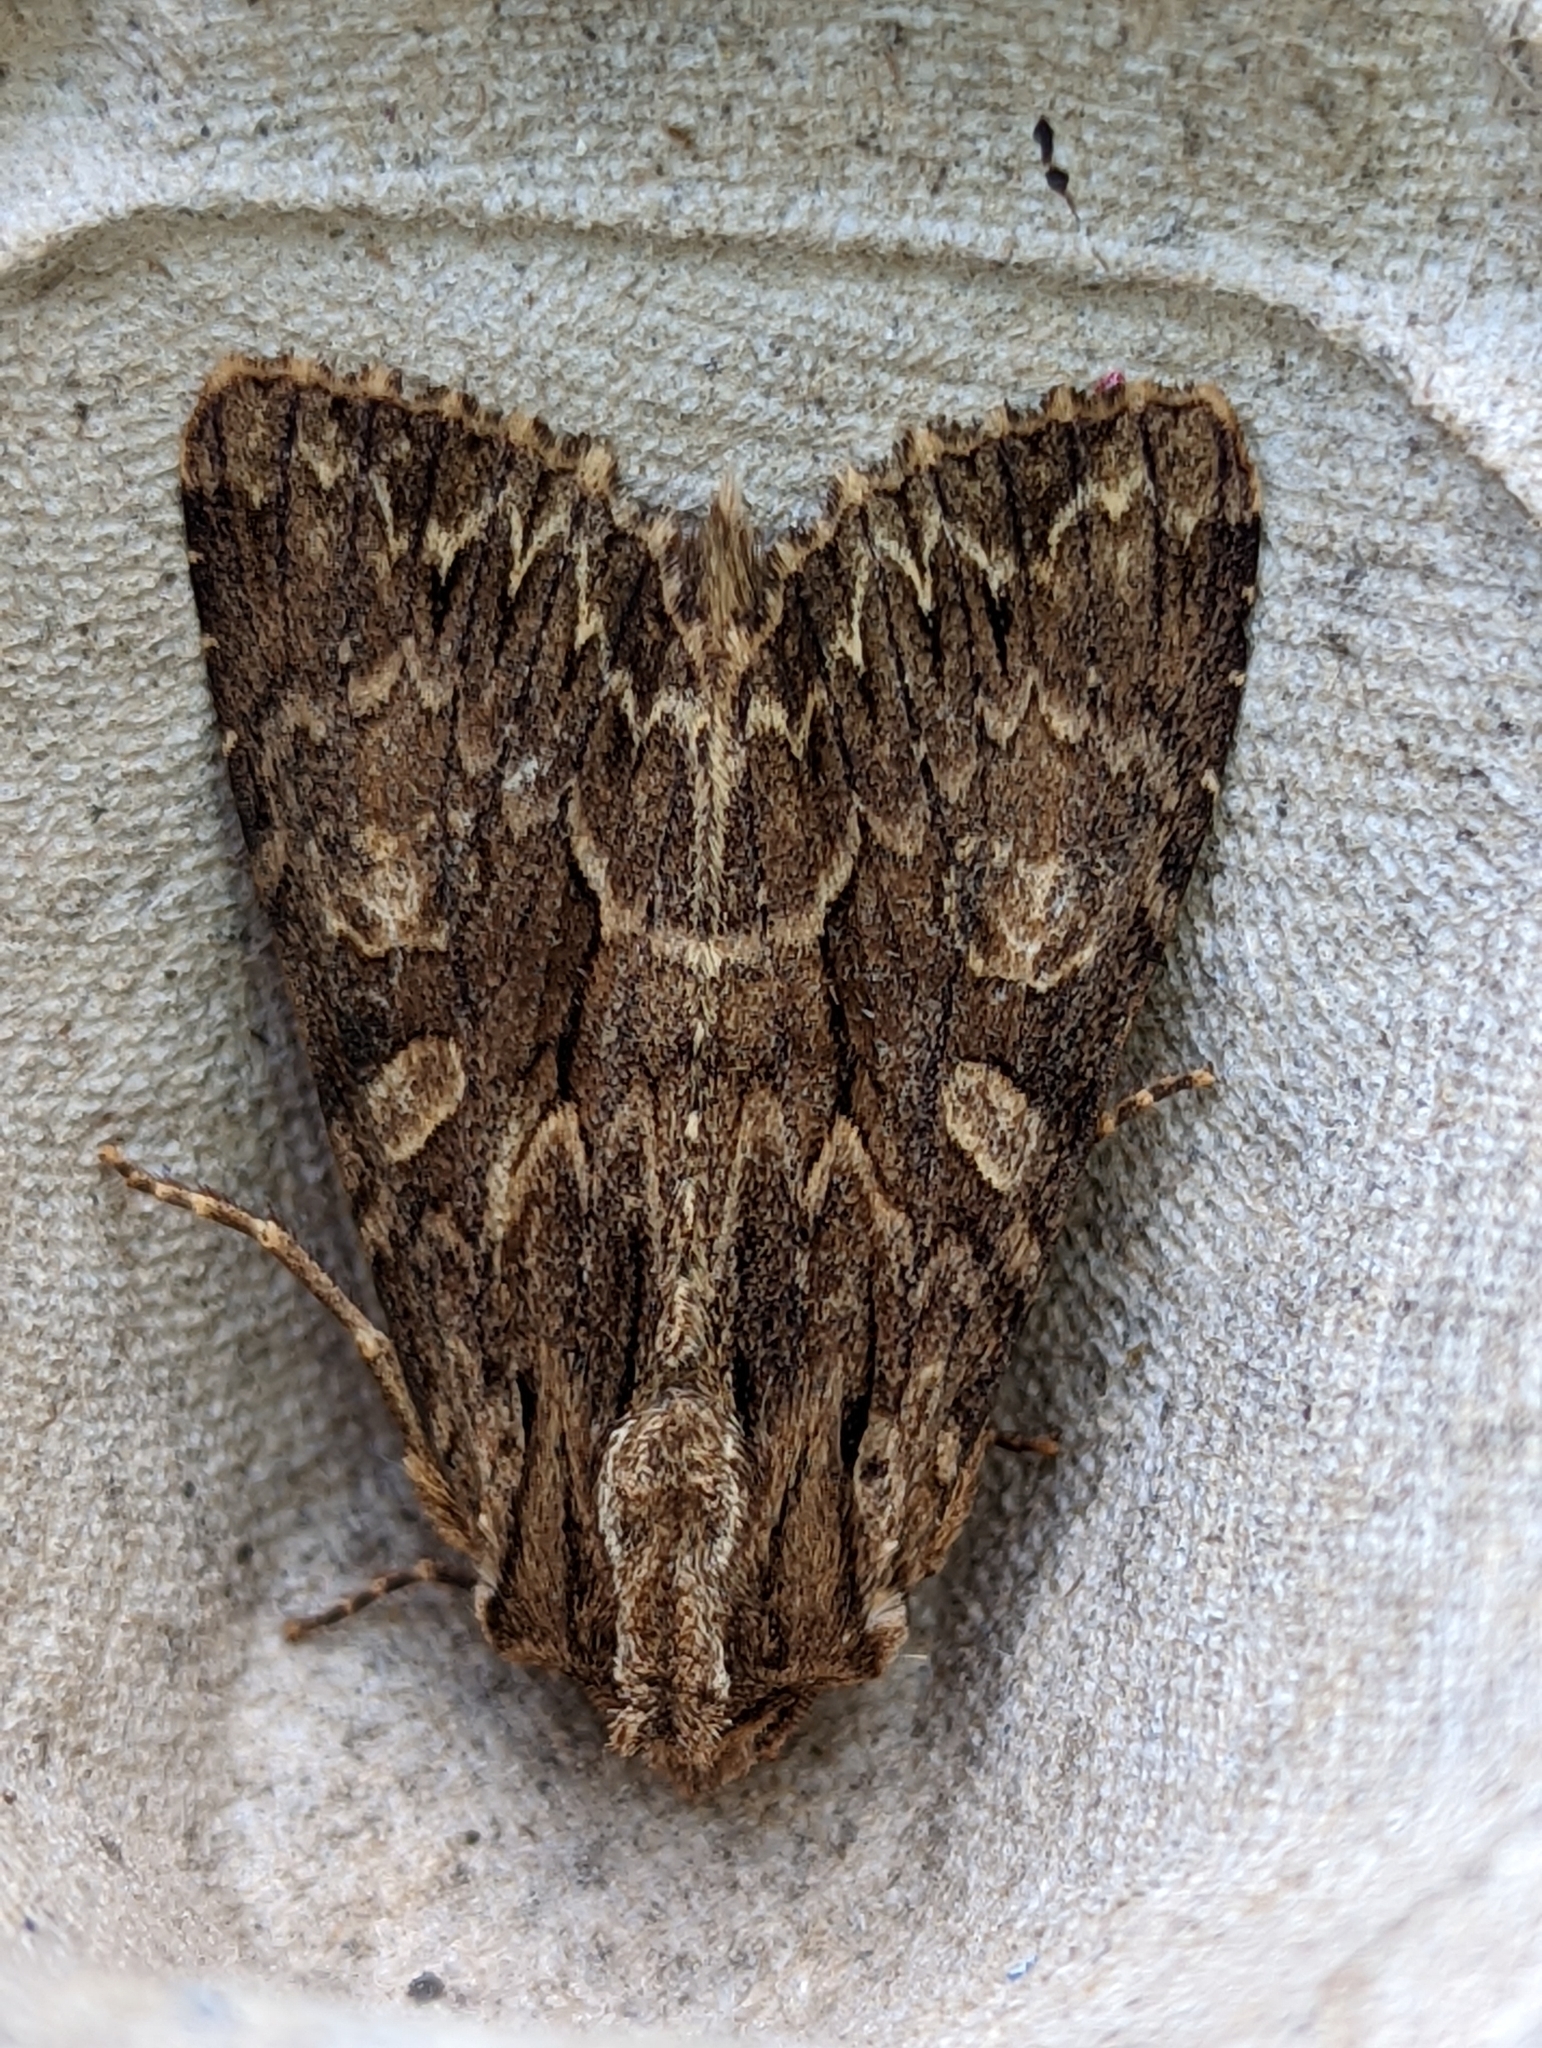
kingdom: Animalia
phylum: Arthropoda
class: Insecta
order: Lepidoptera
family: Noctuidae
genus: Apamea
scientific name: Apamea monoglypha
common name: Dark arches
